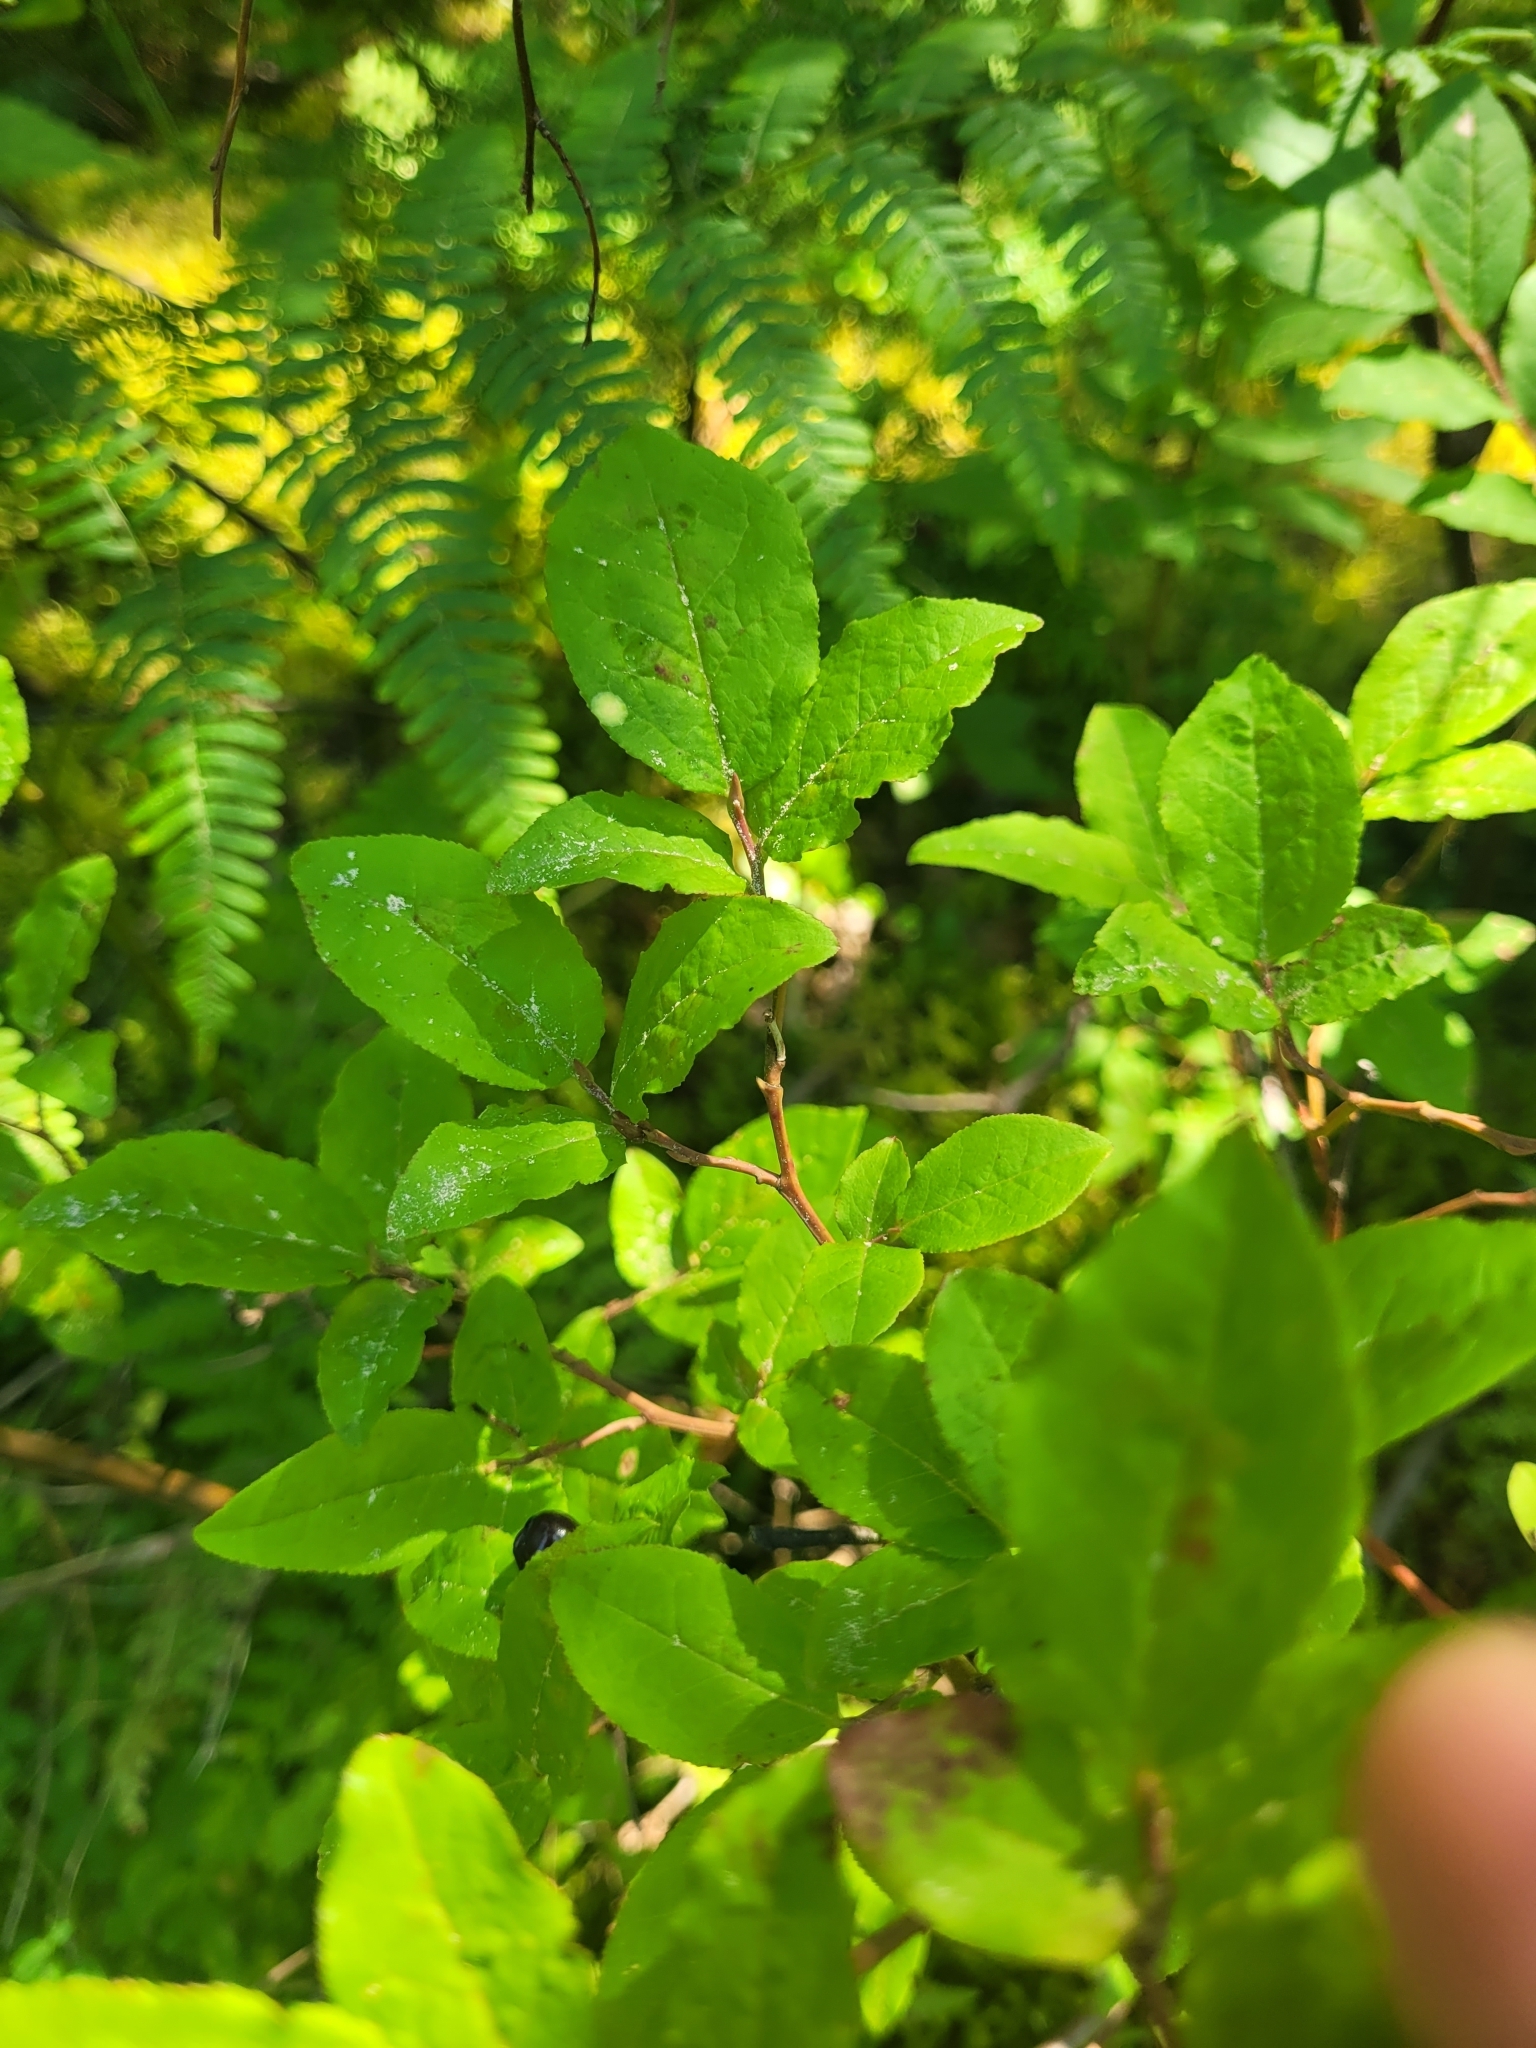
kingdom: Plantae
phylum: Tracheophyta
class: Magnoliopsida
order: Ericales
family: Ericaceae
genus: Vaccinium
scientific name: Vaccinium membranaceum
